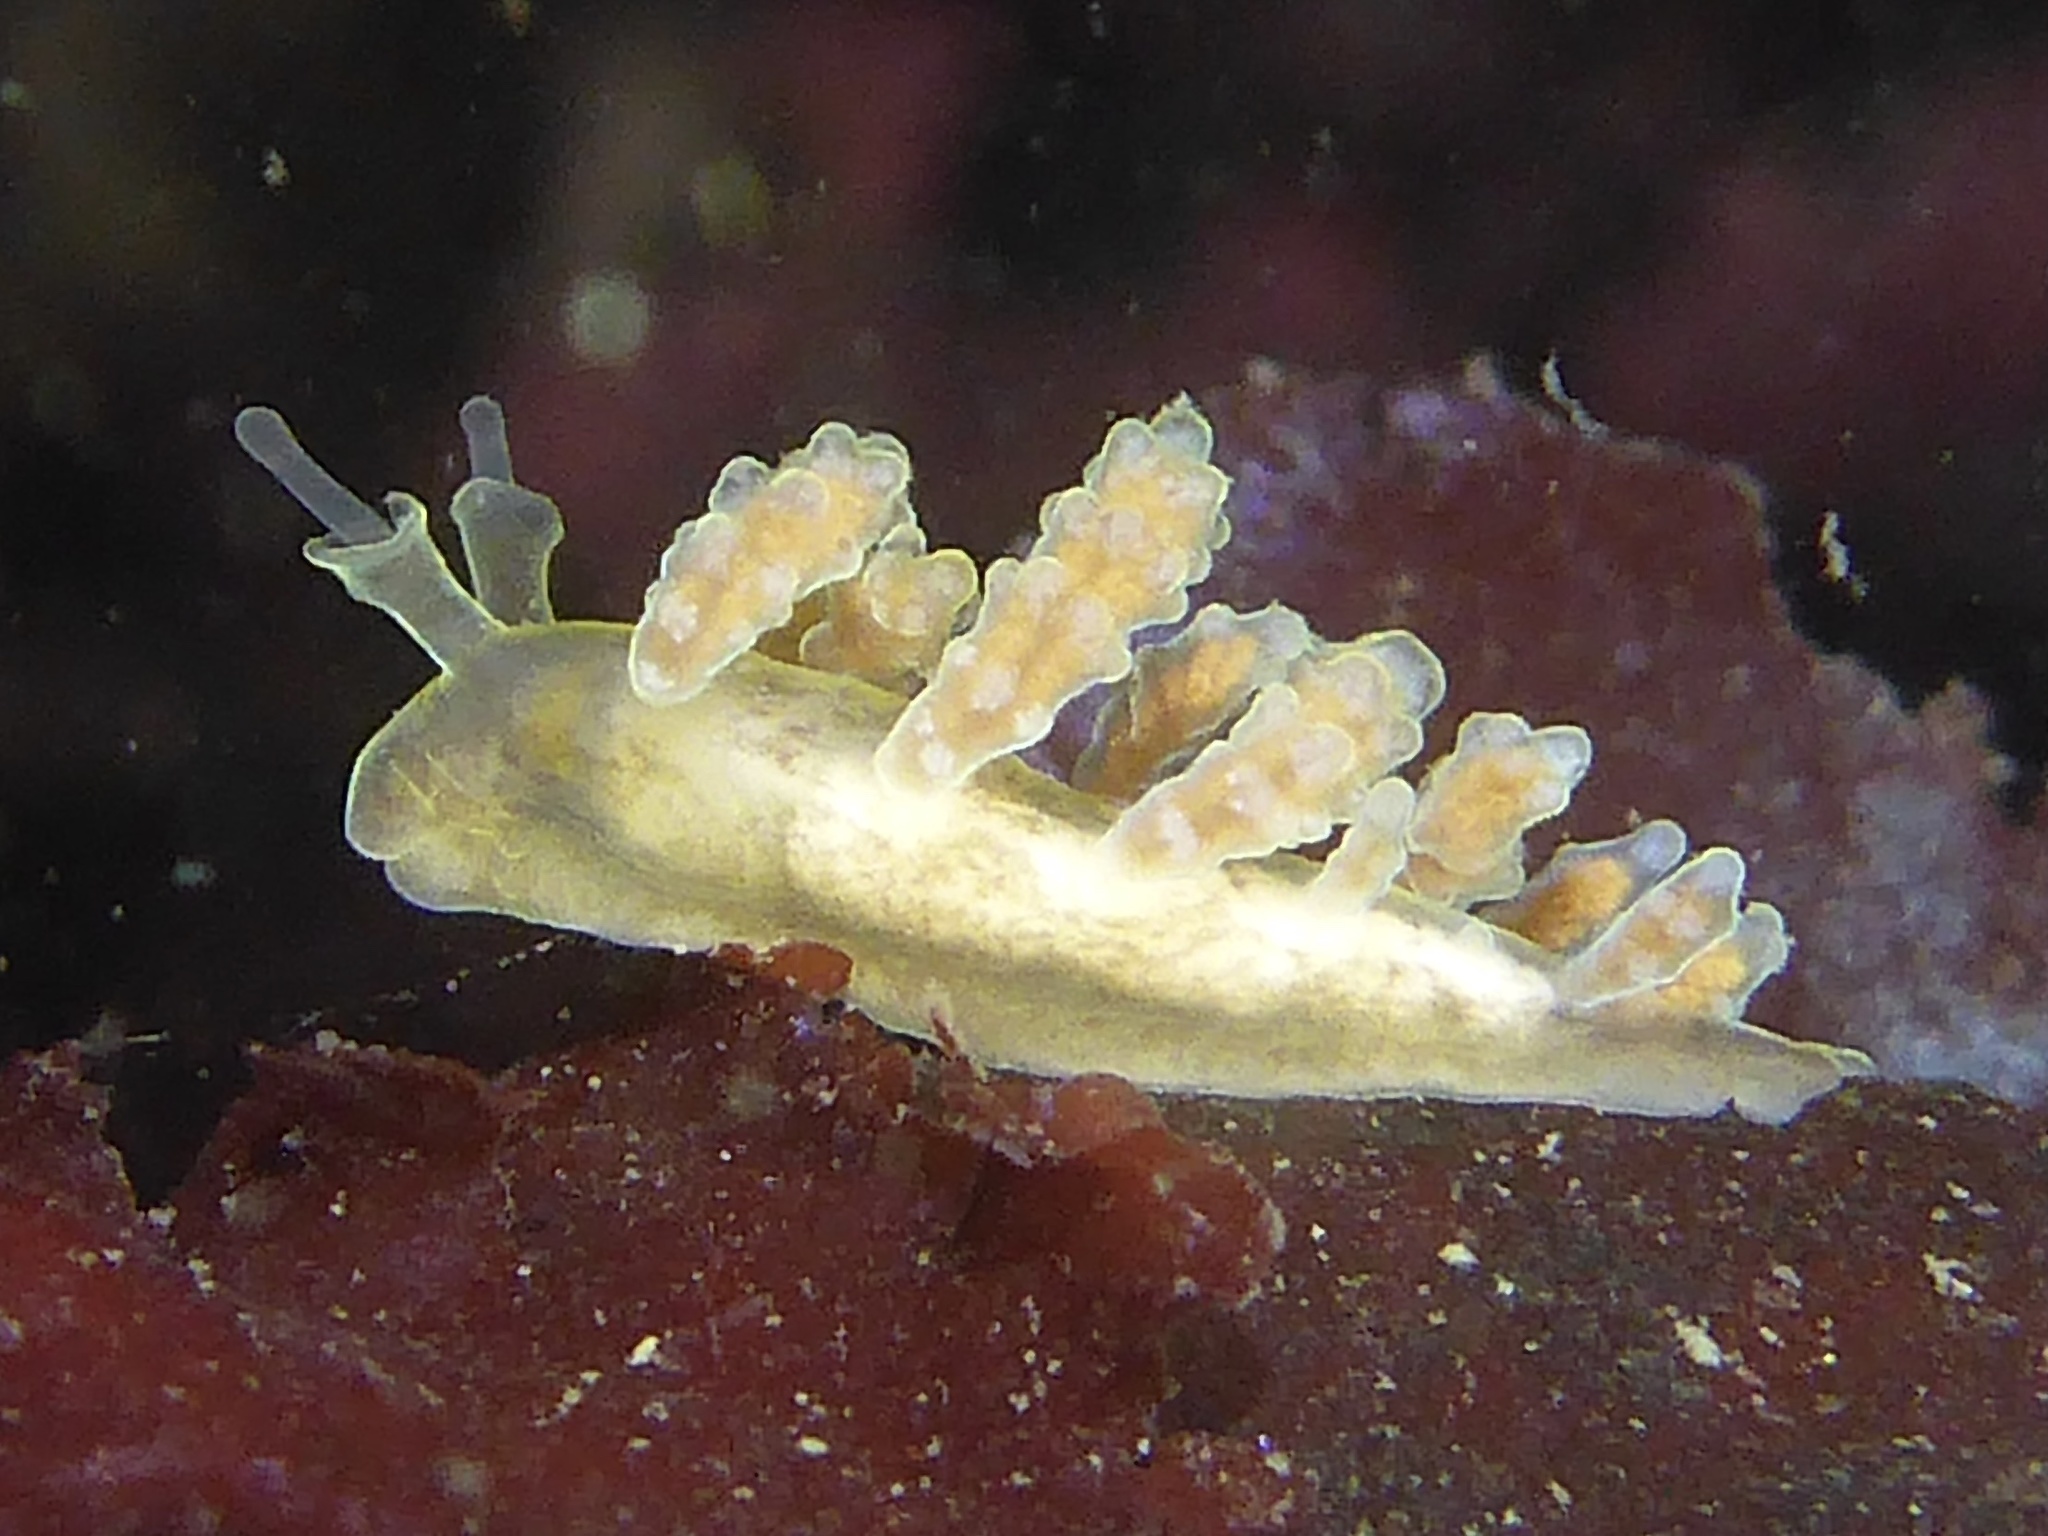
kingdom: Animalia
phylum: Mollusca
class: Gastropoda
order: Nudibranchia
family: Dotidae
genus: Doto
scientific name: Doto columbiana
